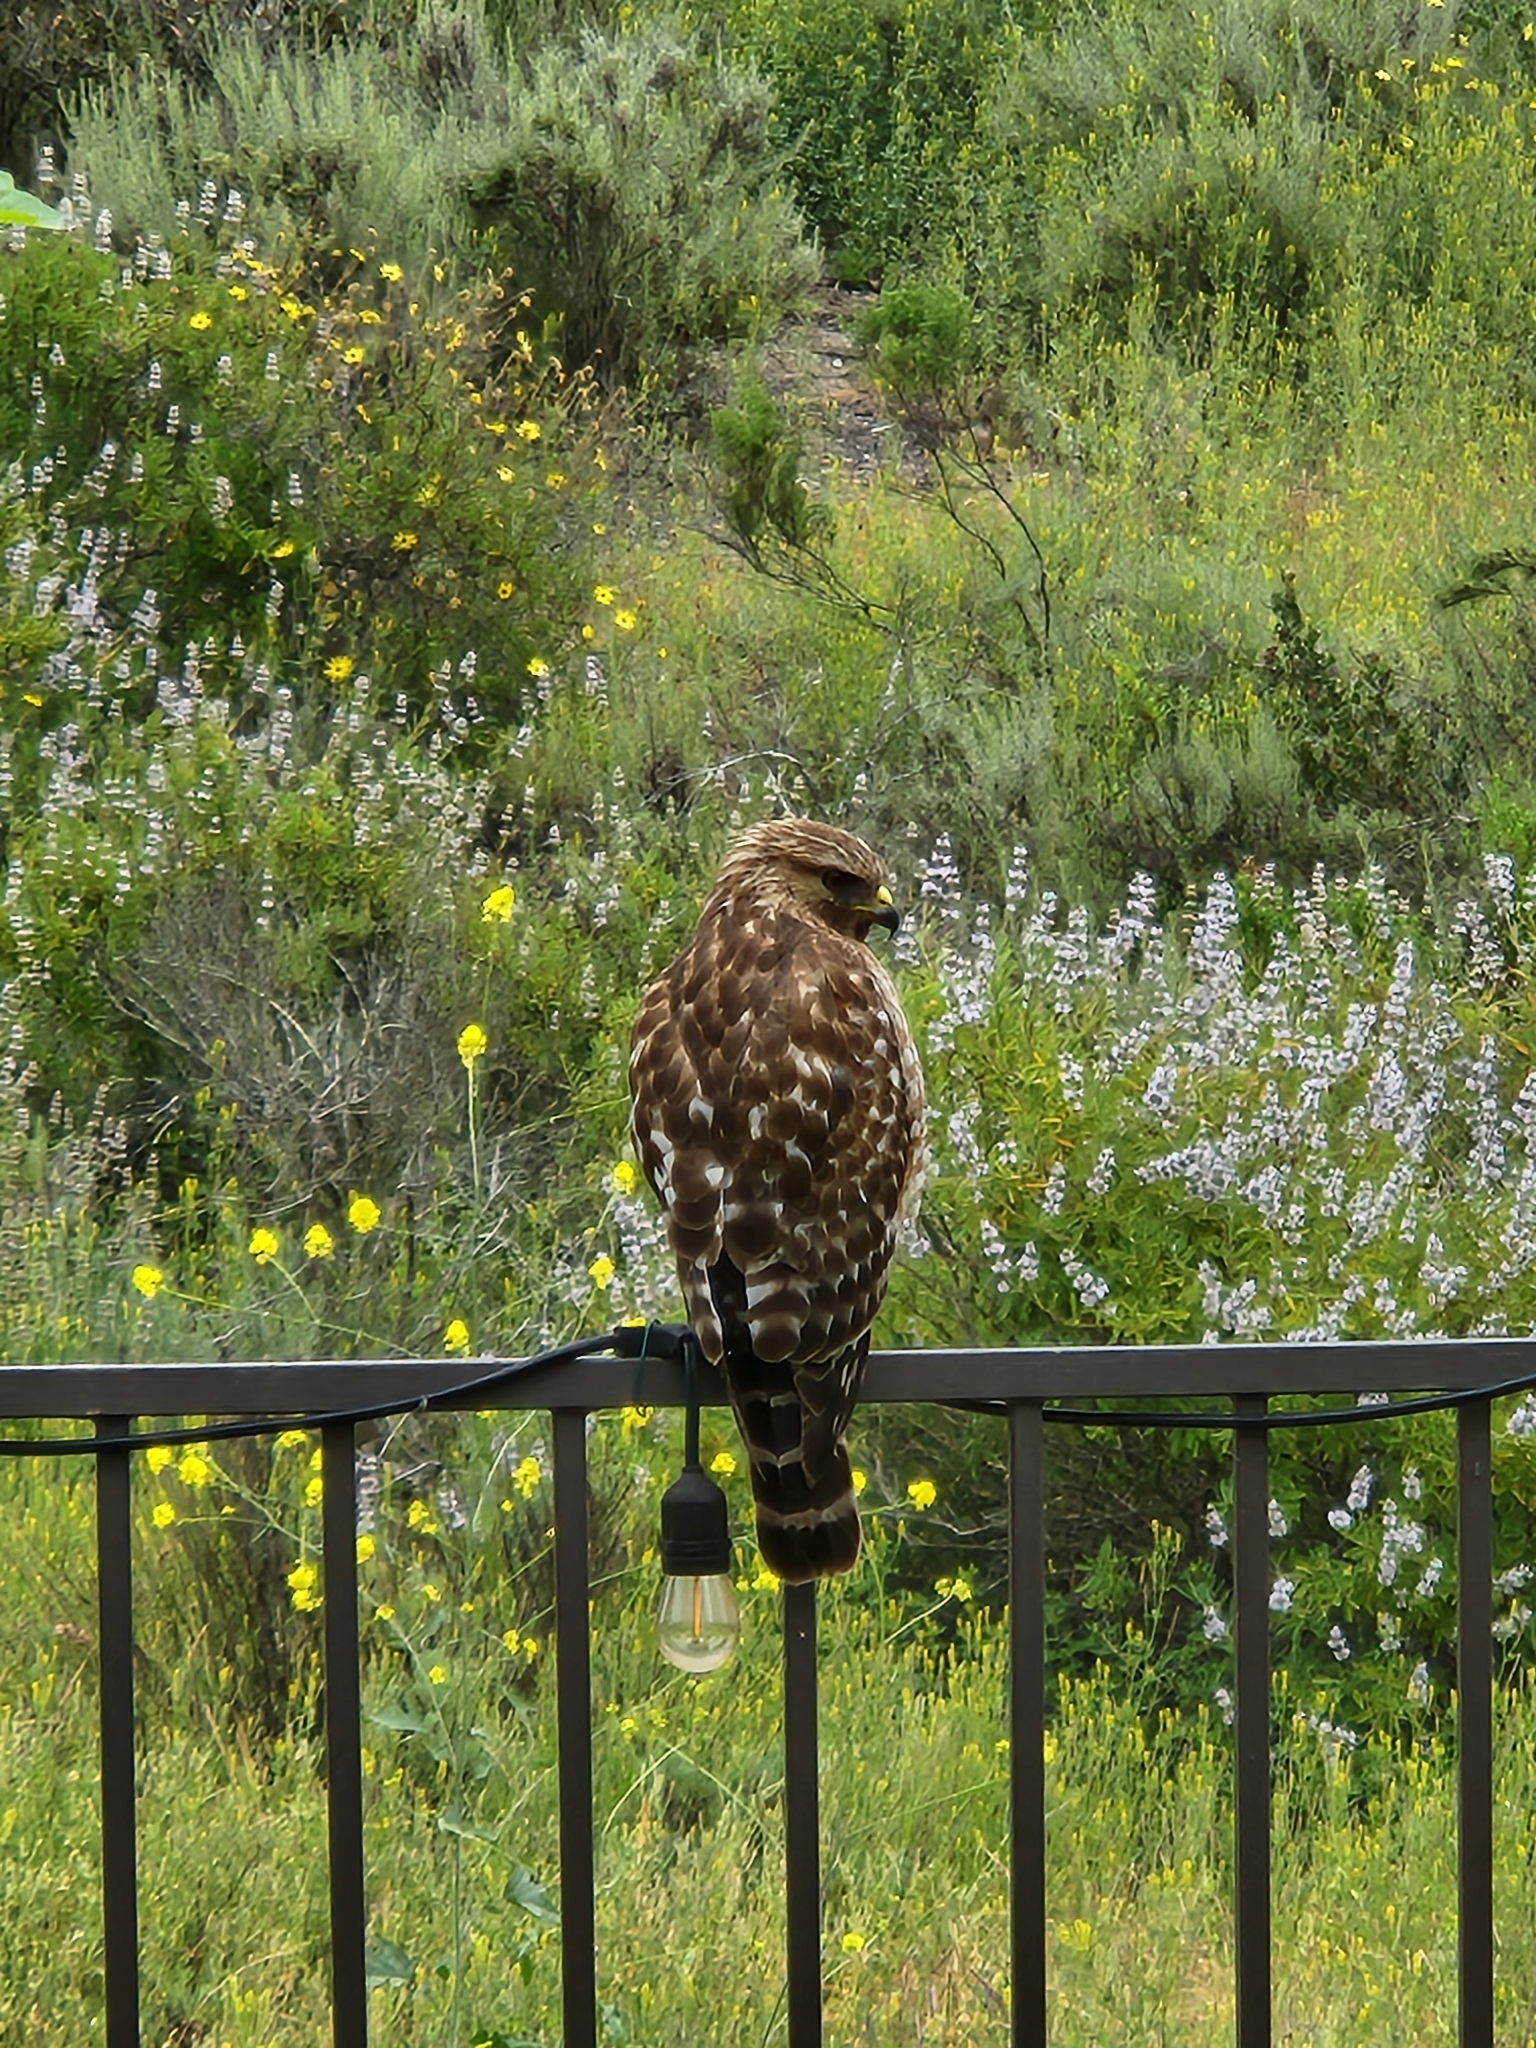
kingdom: Animalia
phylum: Chordata
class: Aves
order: Accipitriformes
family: Accipitridae
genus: Buteo
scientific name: Buteo lineatus
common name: Red-shouldered hawk
